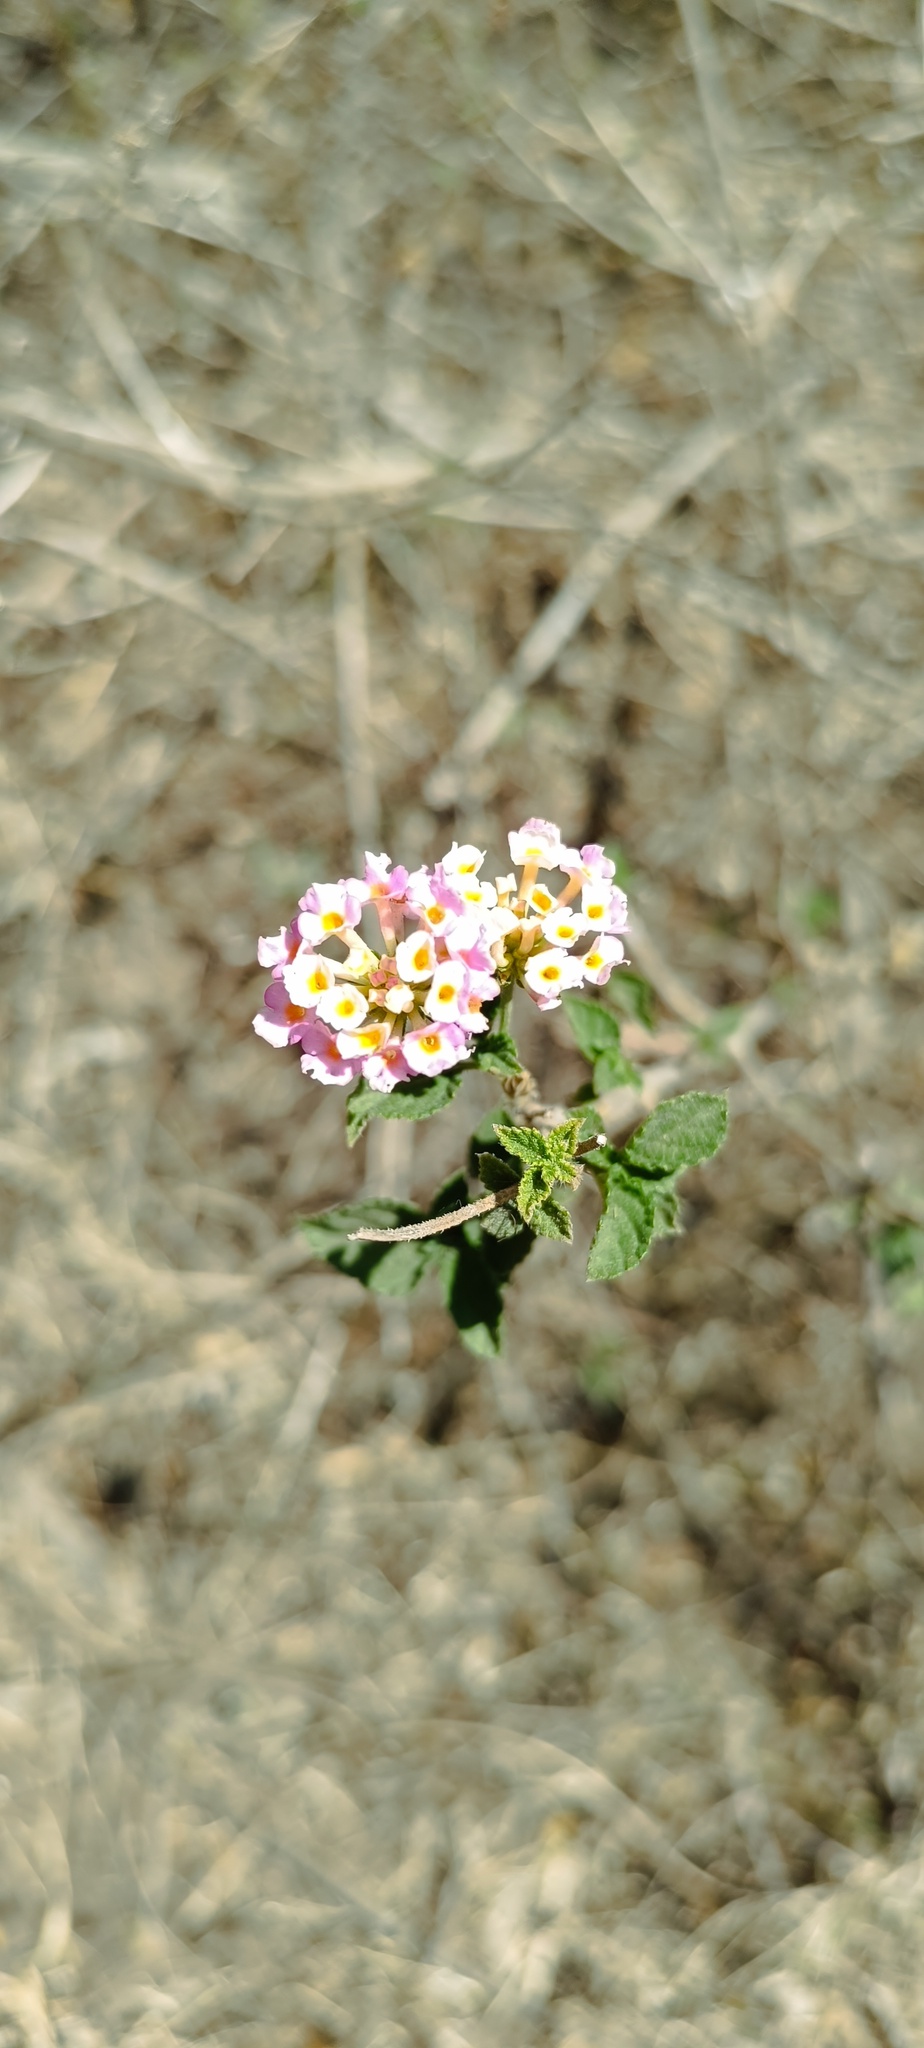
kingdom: Plantae
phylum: Tracheophyta
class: Magnoliopsida
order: Lamiales
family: Verbenaceae
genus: Lantana
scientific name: Lantana horrida
